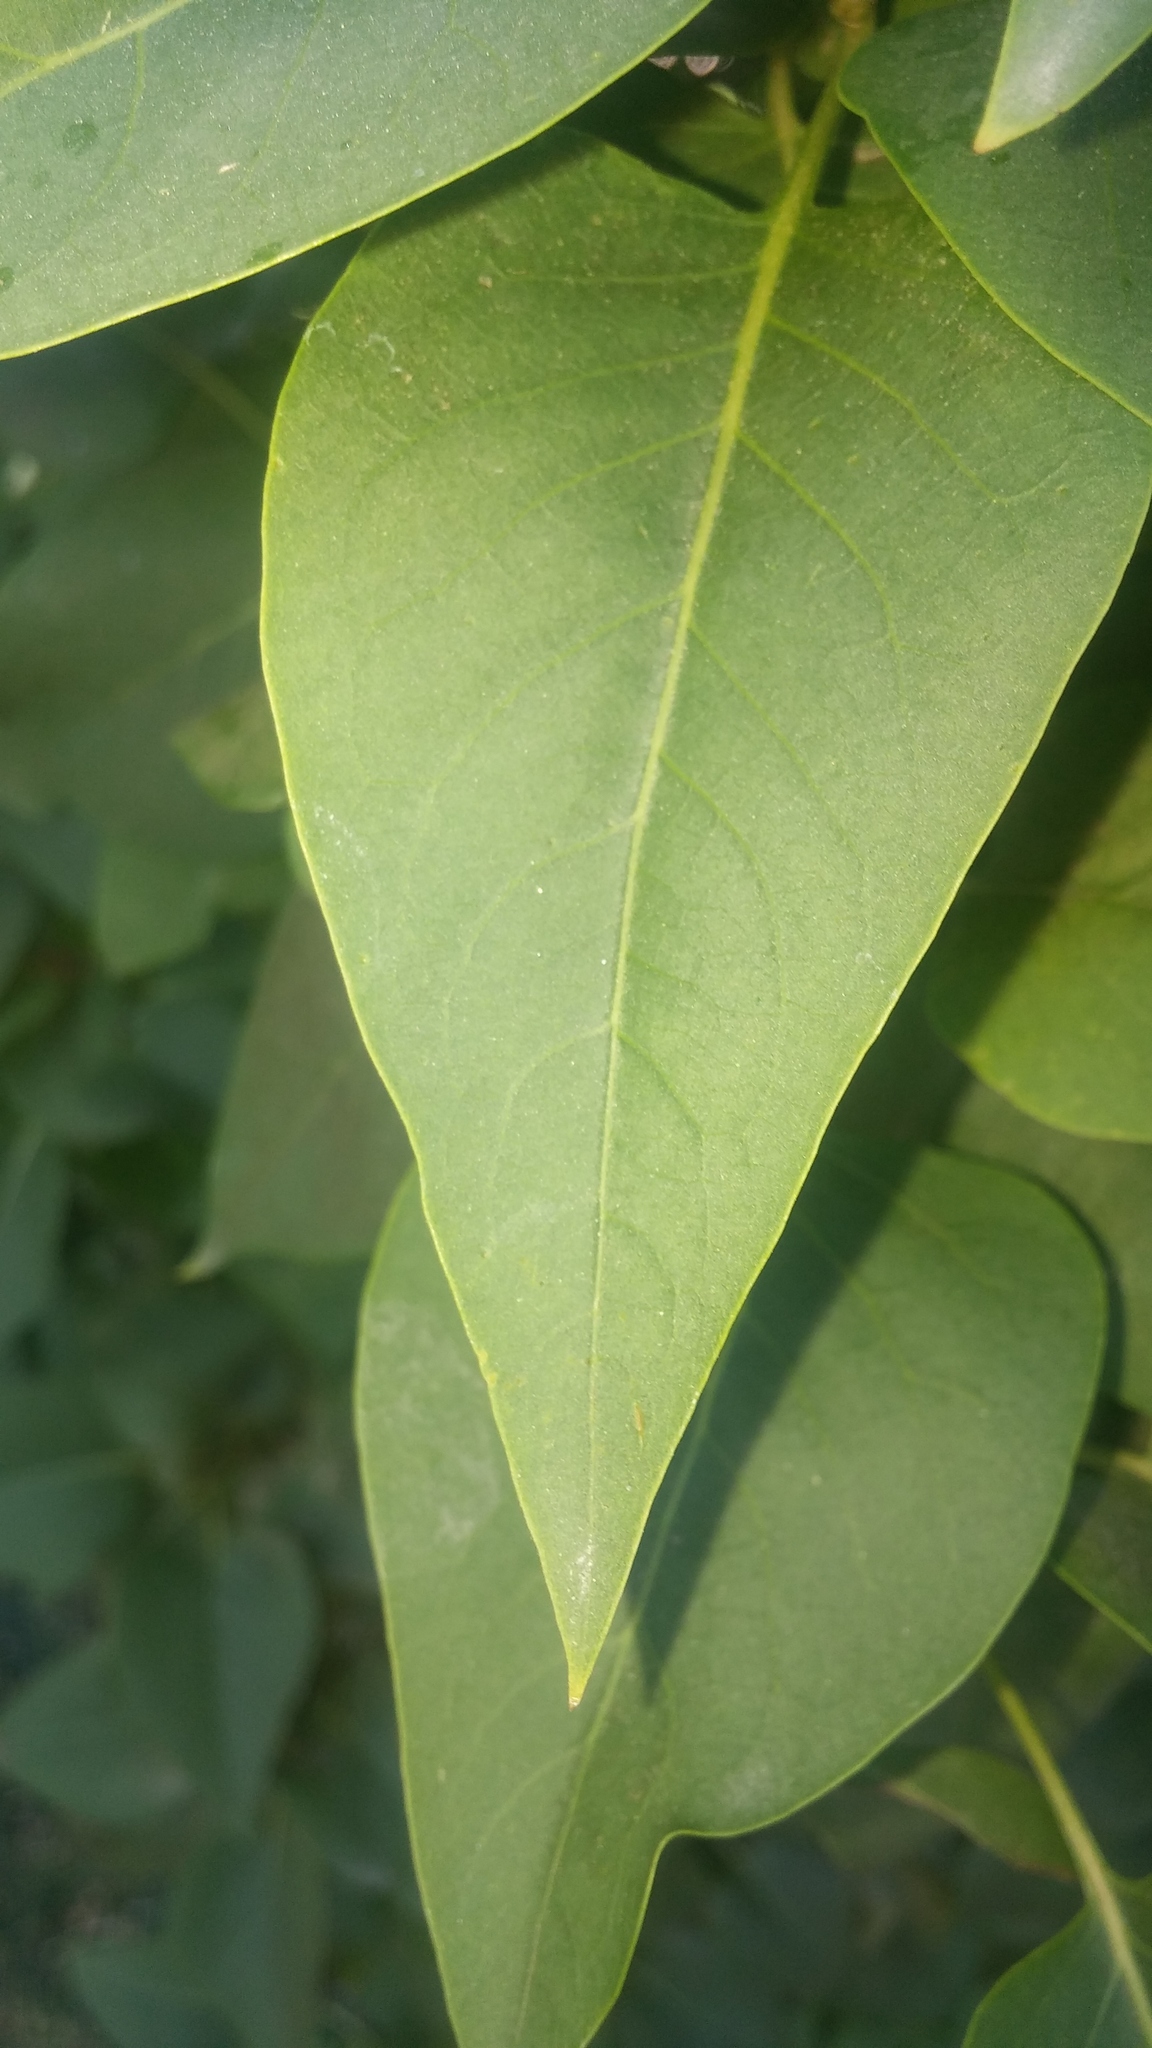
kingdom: Plantae
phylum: Tracheophyta
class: Magnoliopsida
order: Lamiales
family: Oleaceae
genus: Syringa
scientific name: Syringa vulgaris
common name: Common lilac
